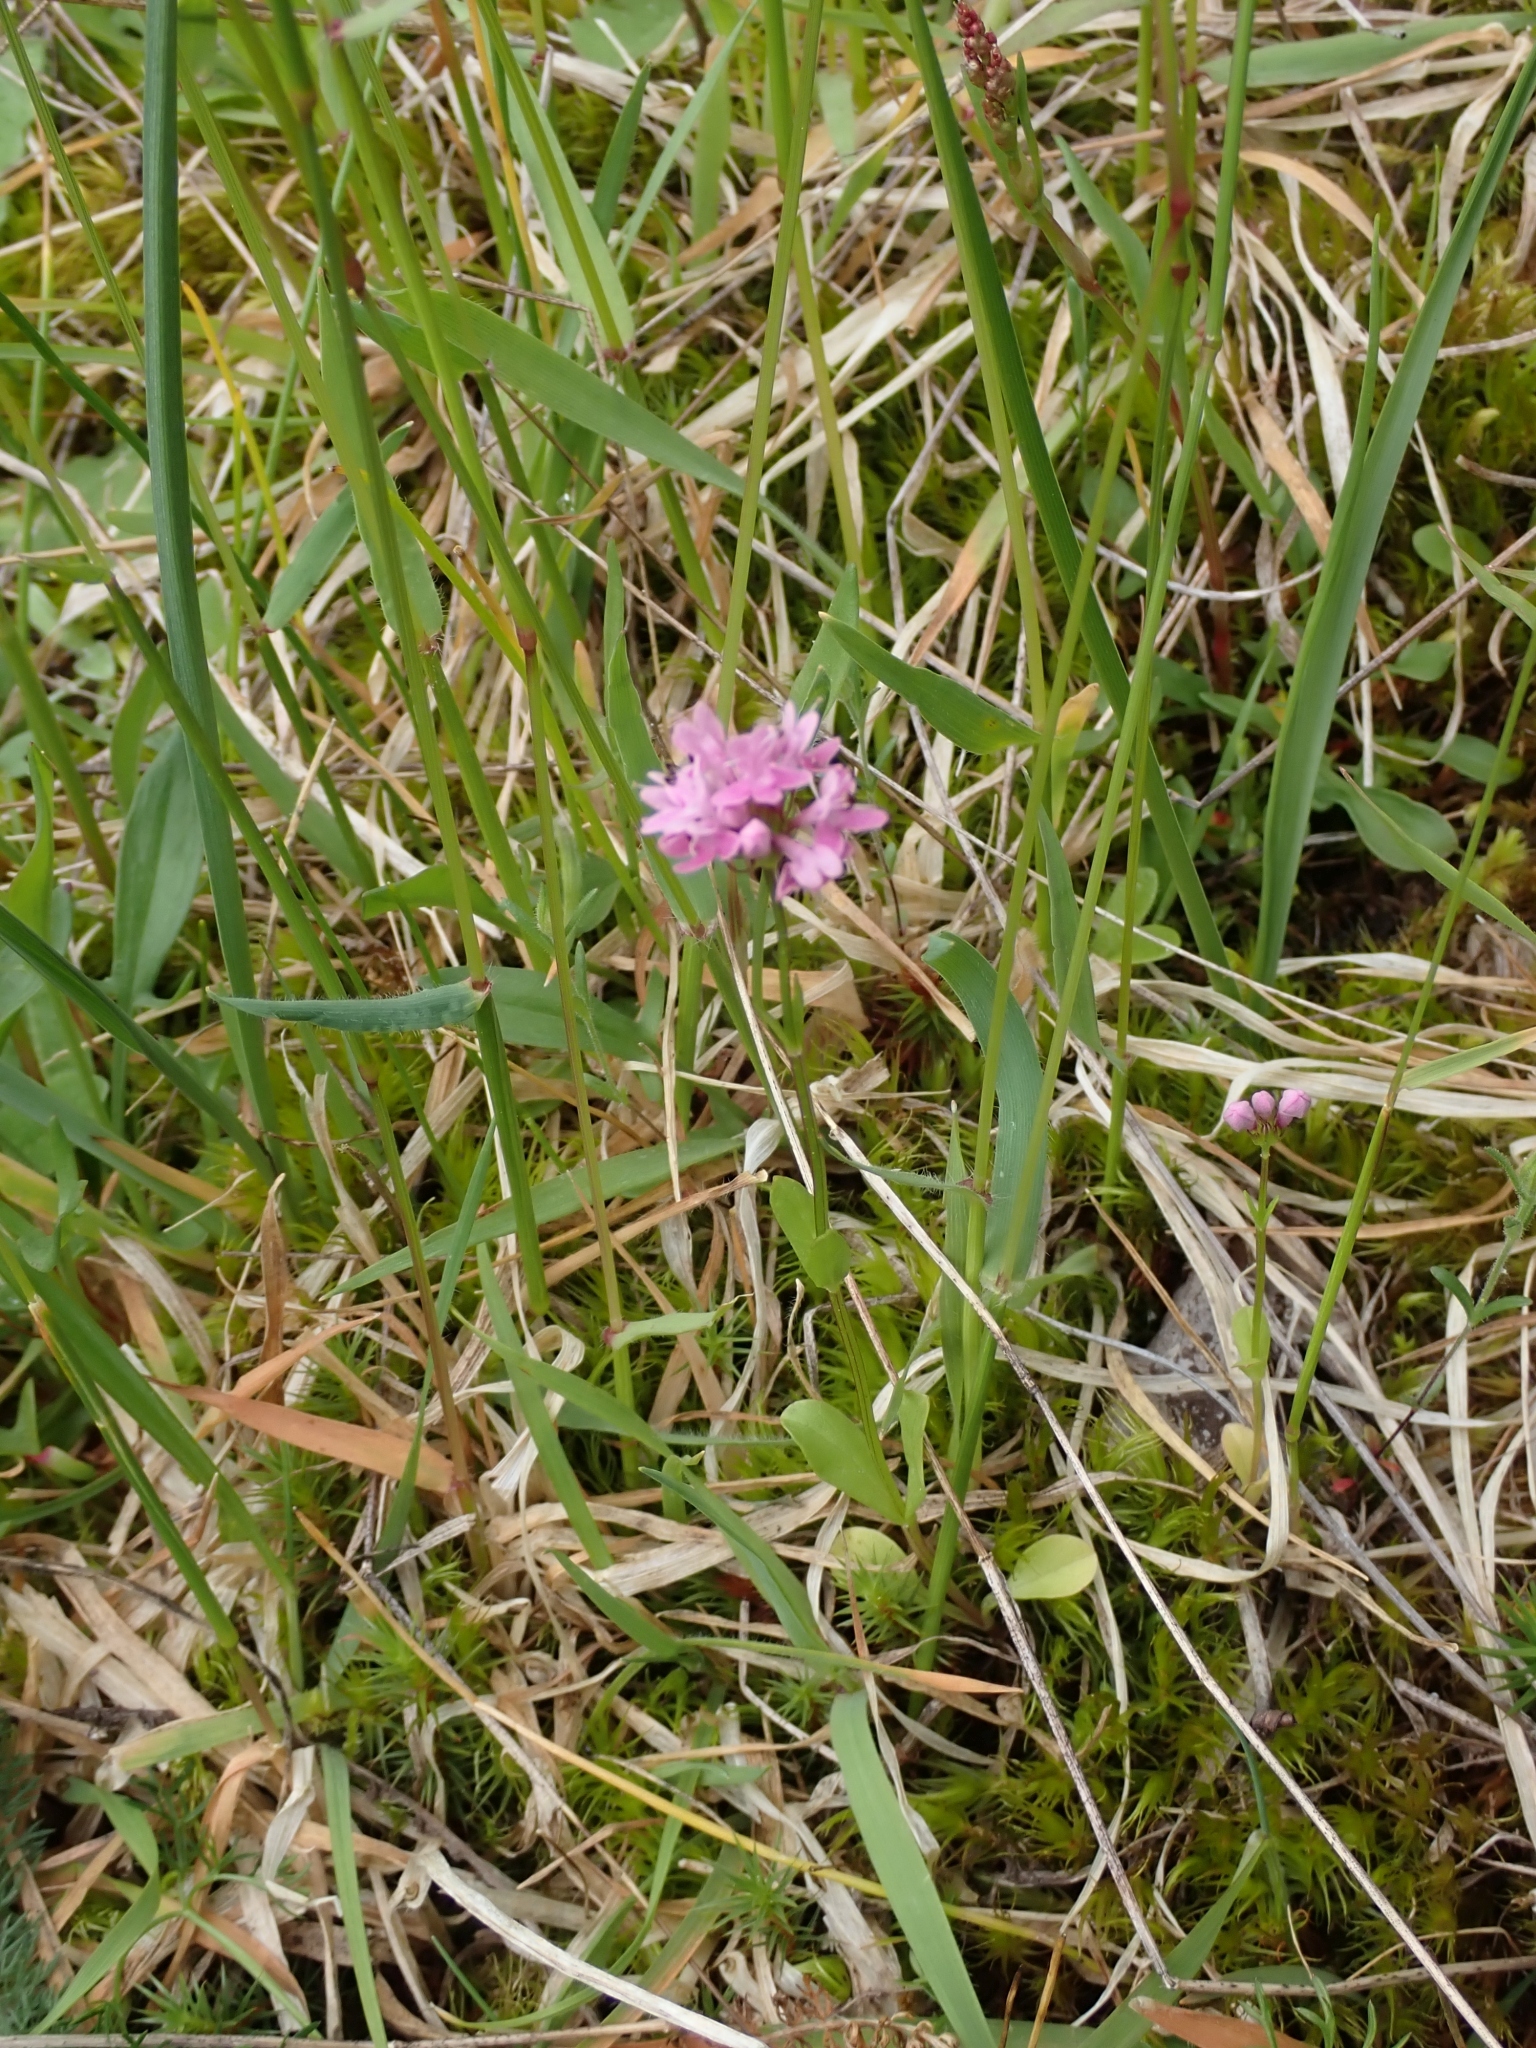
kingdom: Plantae
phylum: Tracheophyta
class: Magnoliopsida
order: Dipsacales
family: Caprifoliaceae
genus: Plectritis
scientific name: Plectritis congesta
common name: Pink plectritis
